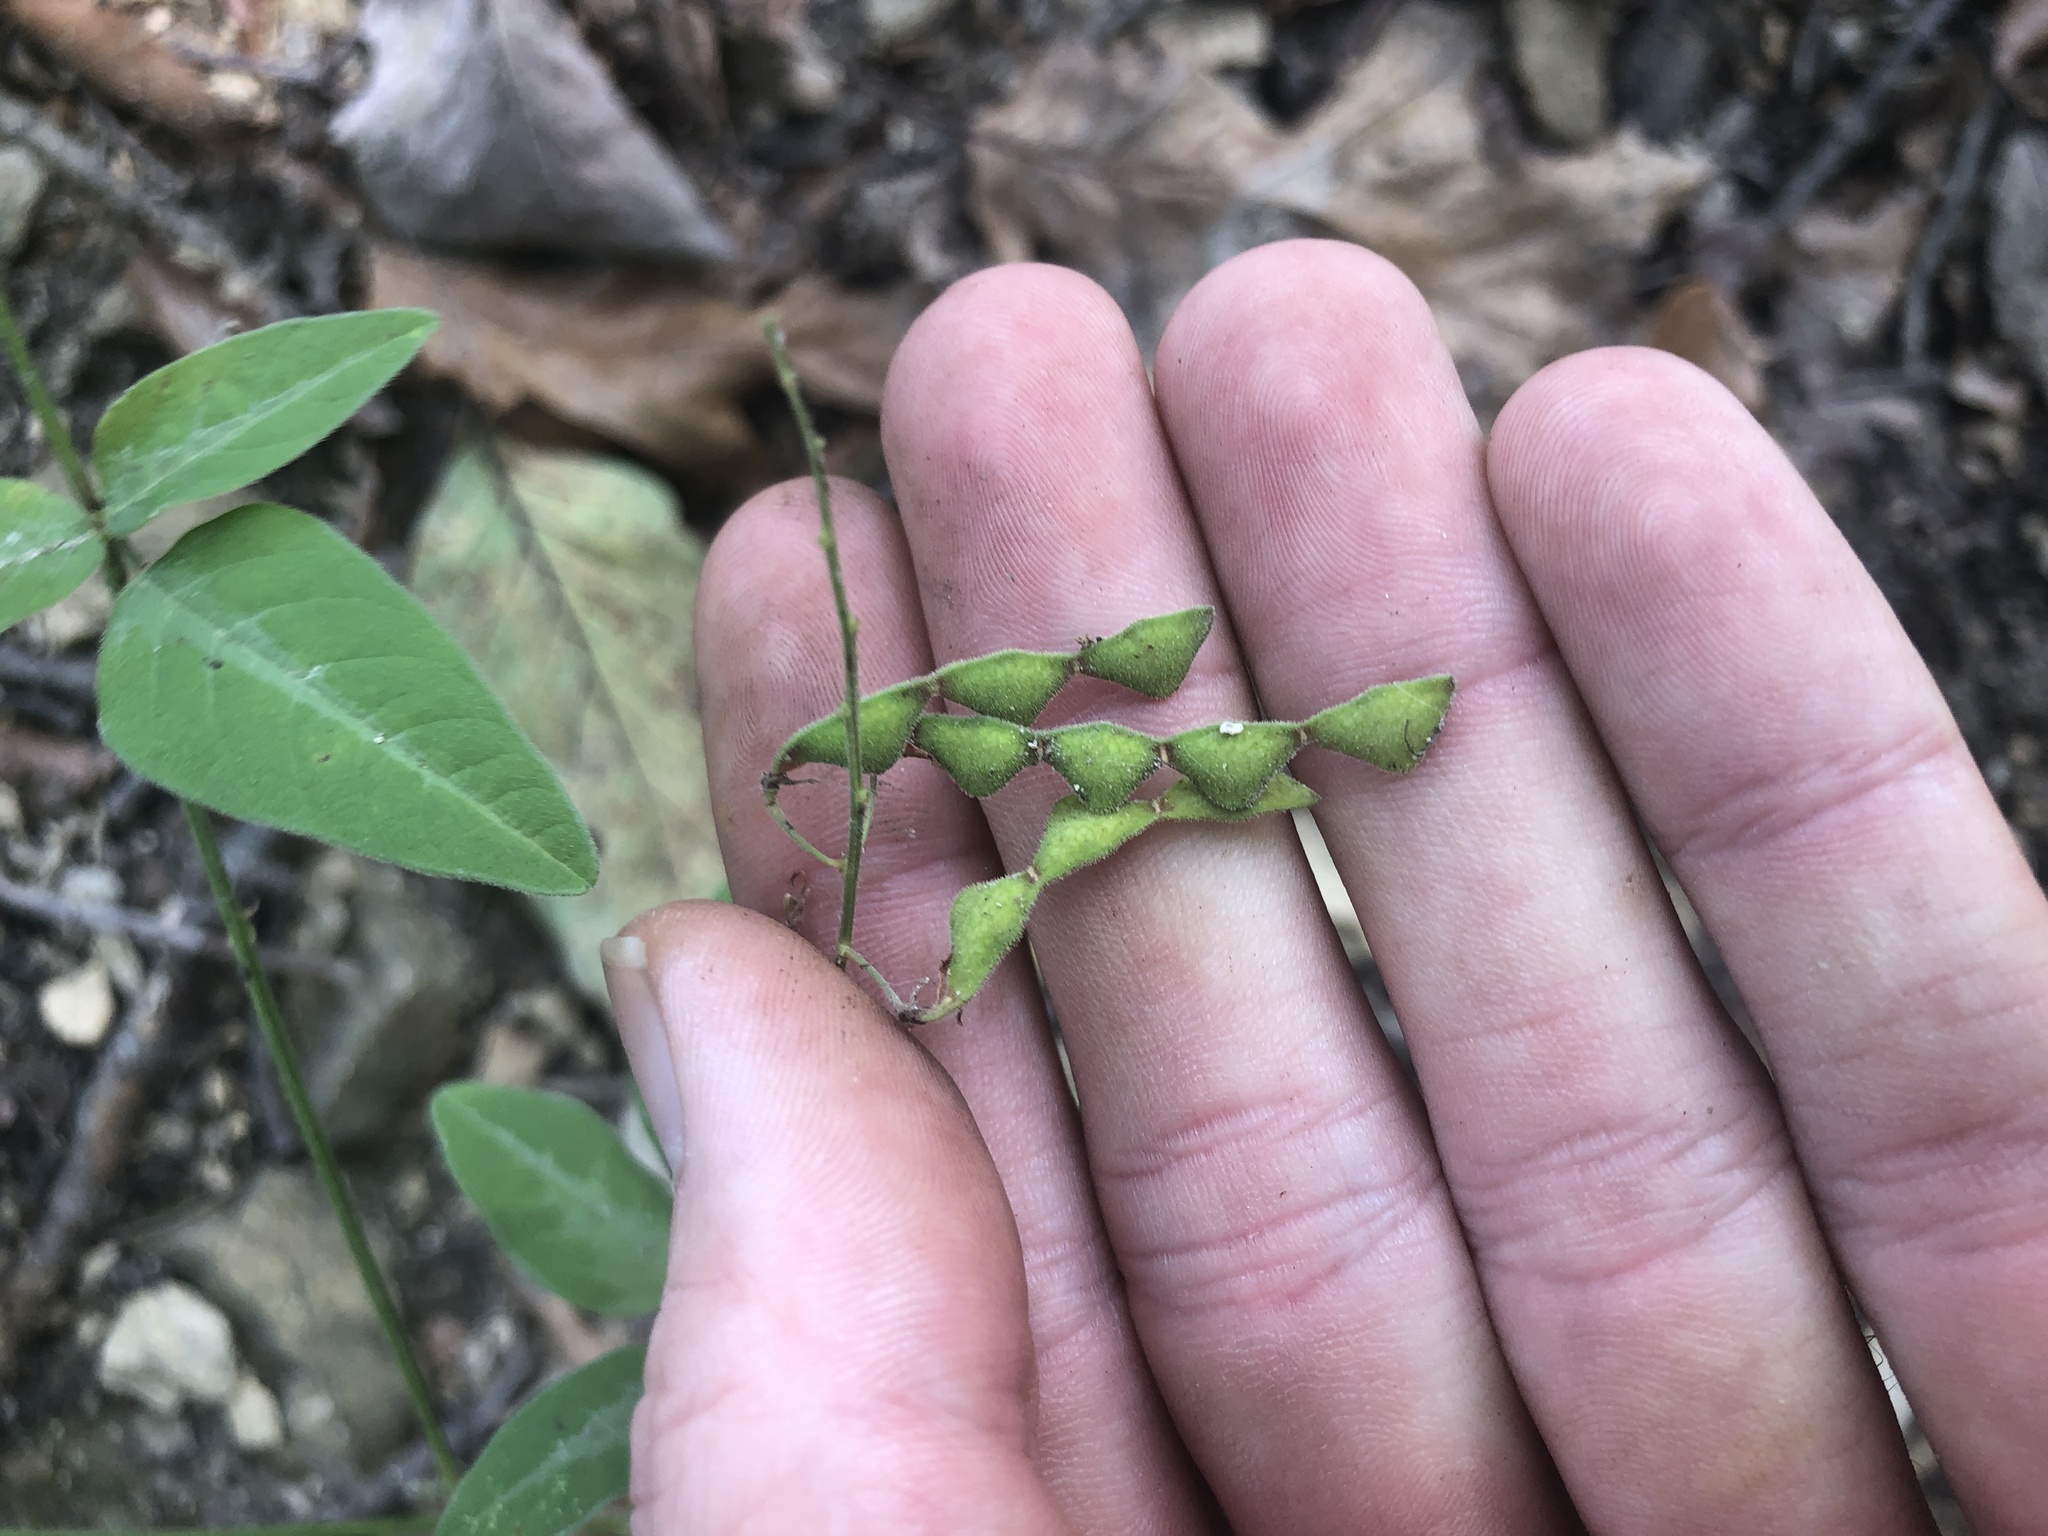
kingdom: Plantae
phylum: Tracheophyta
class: Magnoliopsida
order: Fabales
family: Fabaceae
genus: Desmodium
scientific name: Desmodium perplexum
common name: Perplexed tick trefoil
